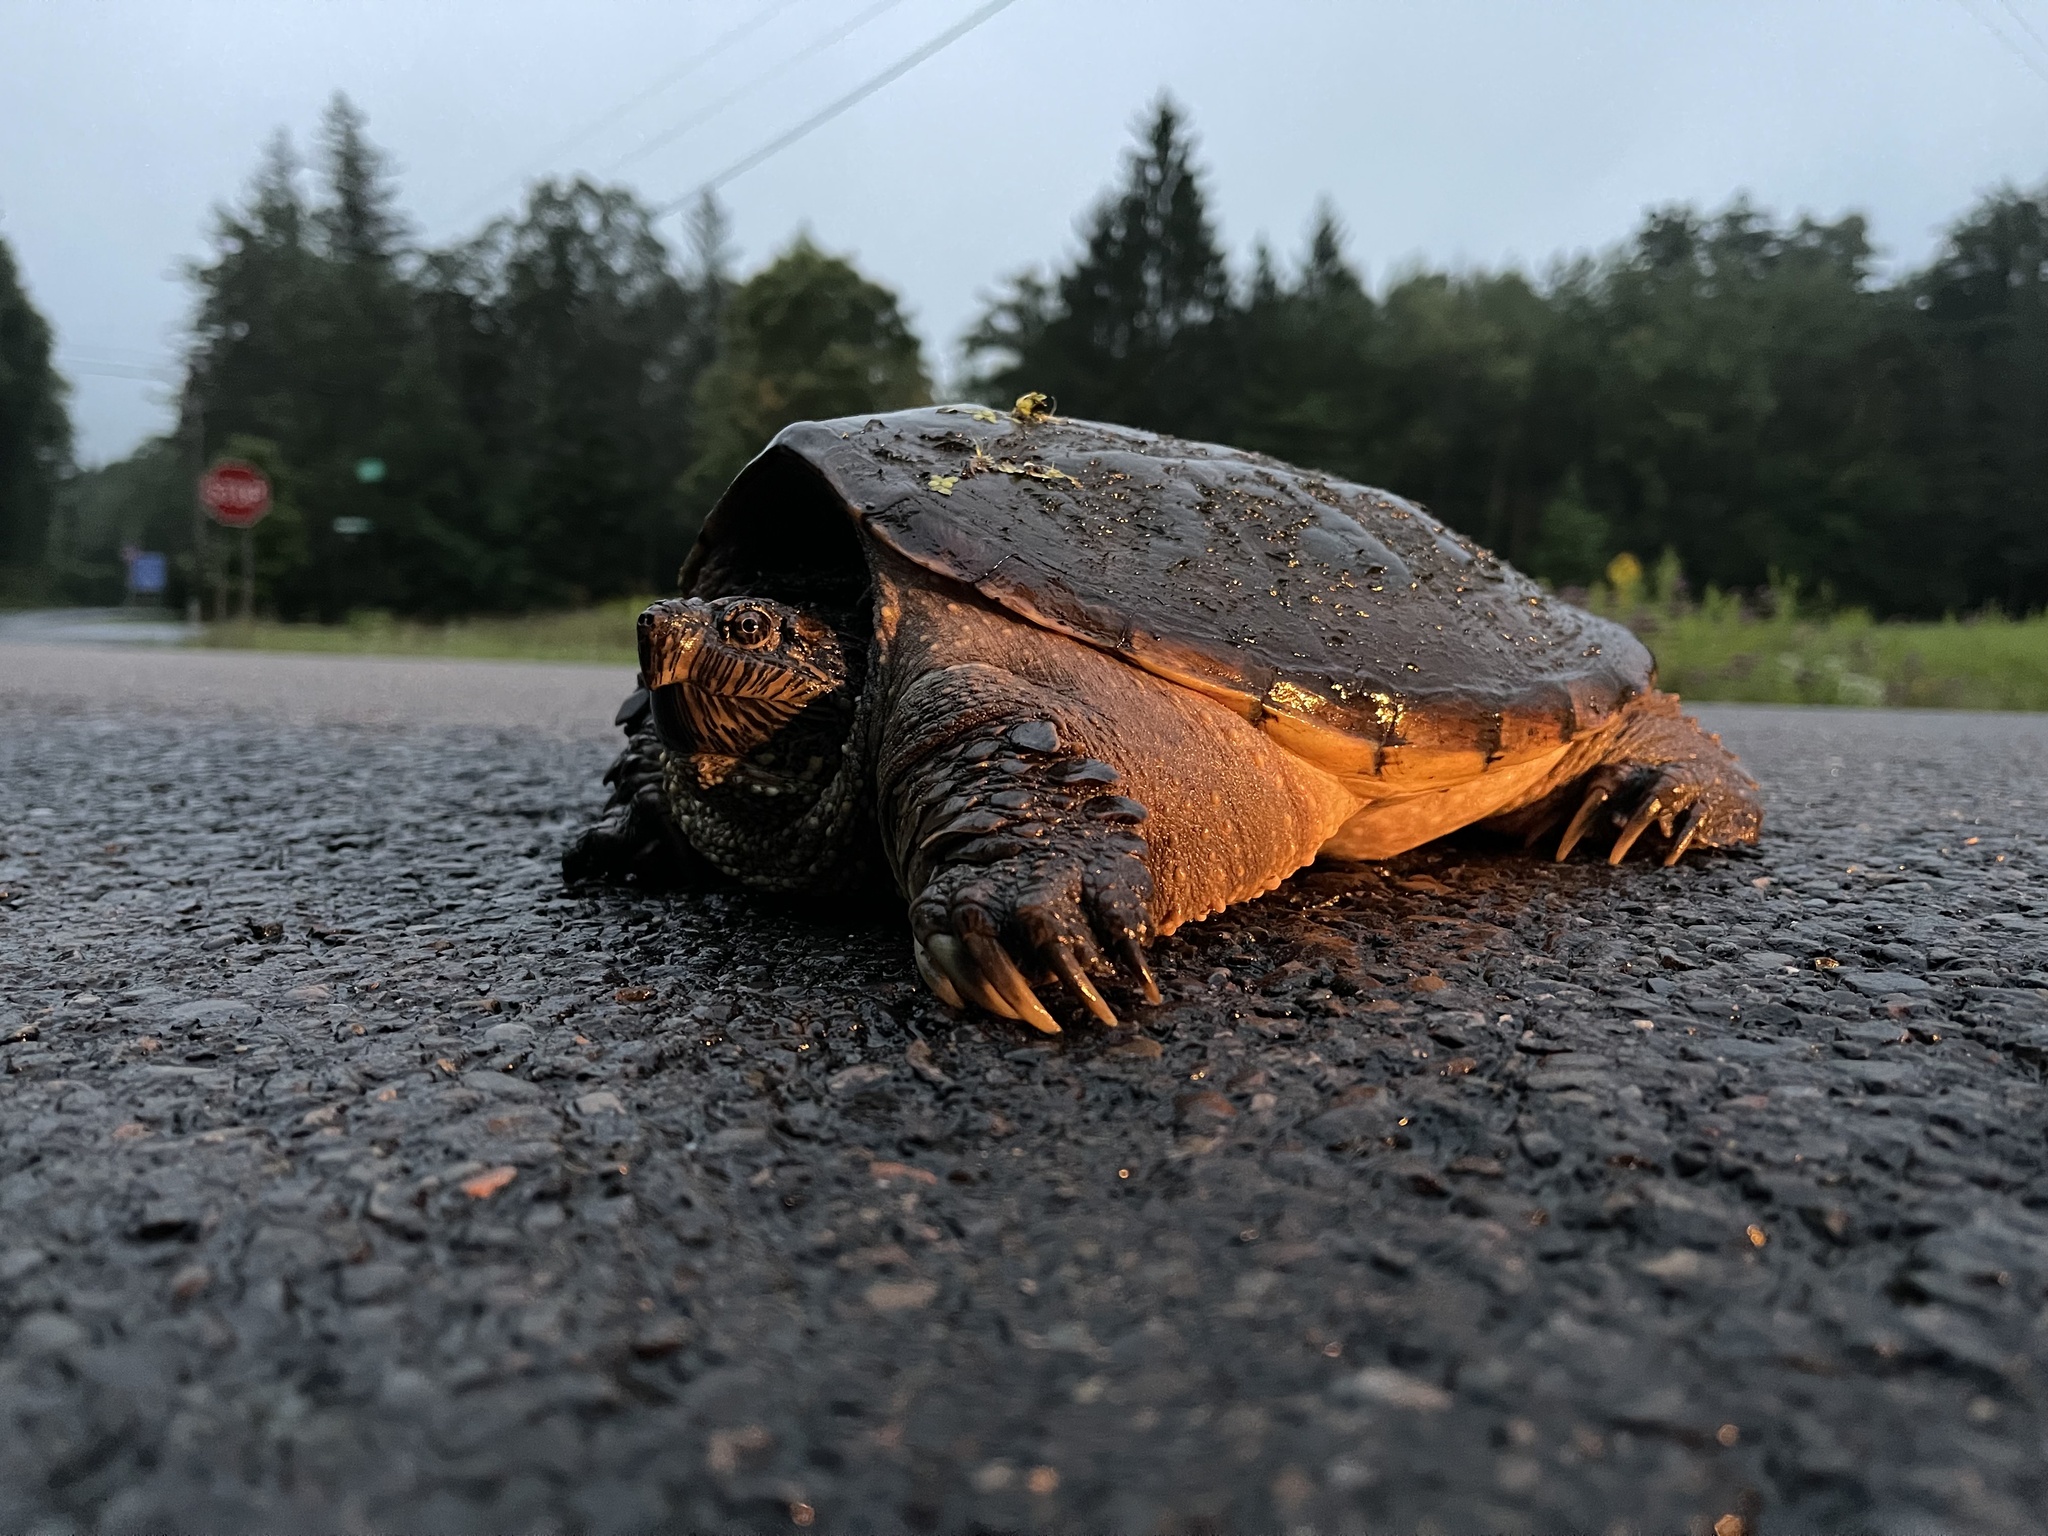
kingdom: Animalia
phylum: Chordata
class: Testudines
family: Chelydridae
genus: Chelydra
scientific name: Chelydra serpentina
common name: Common snapping turtle
